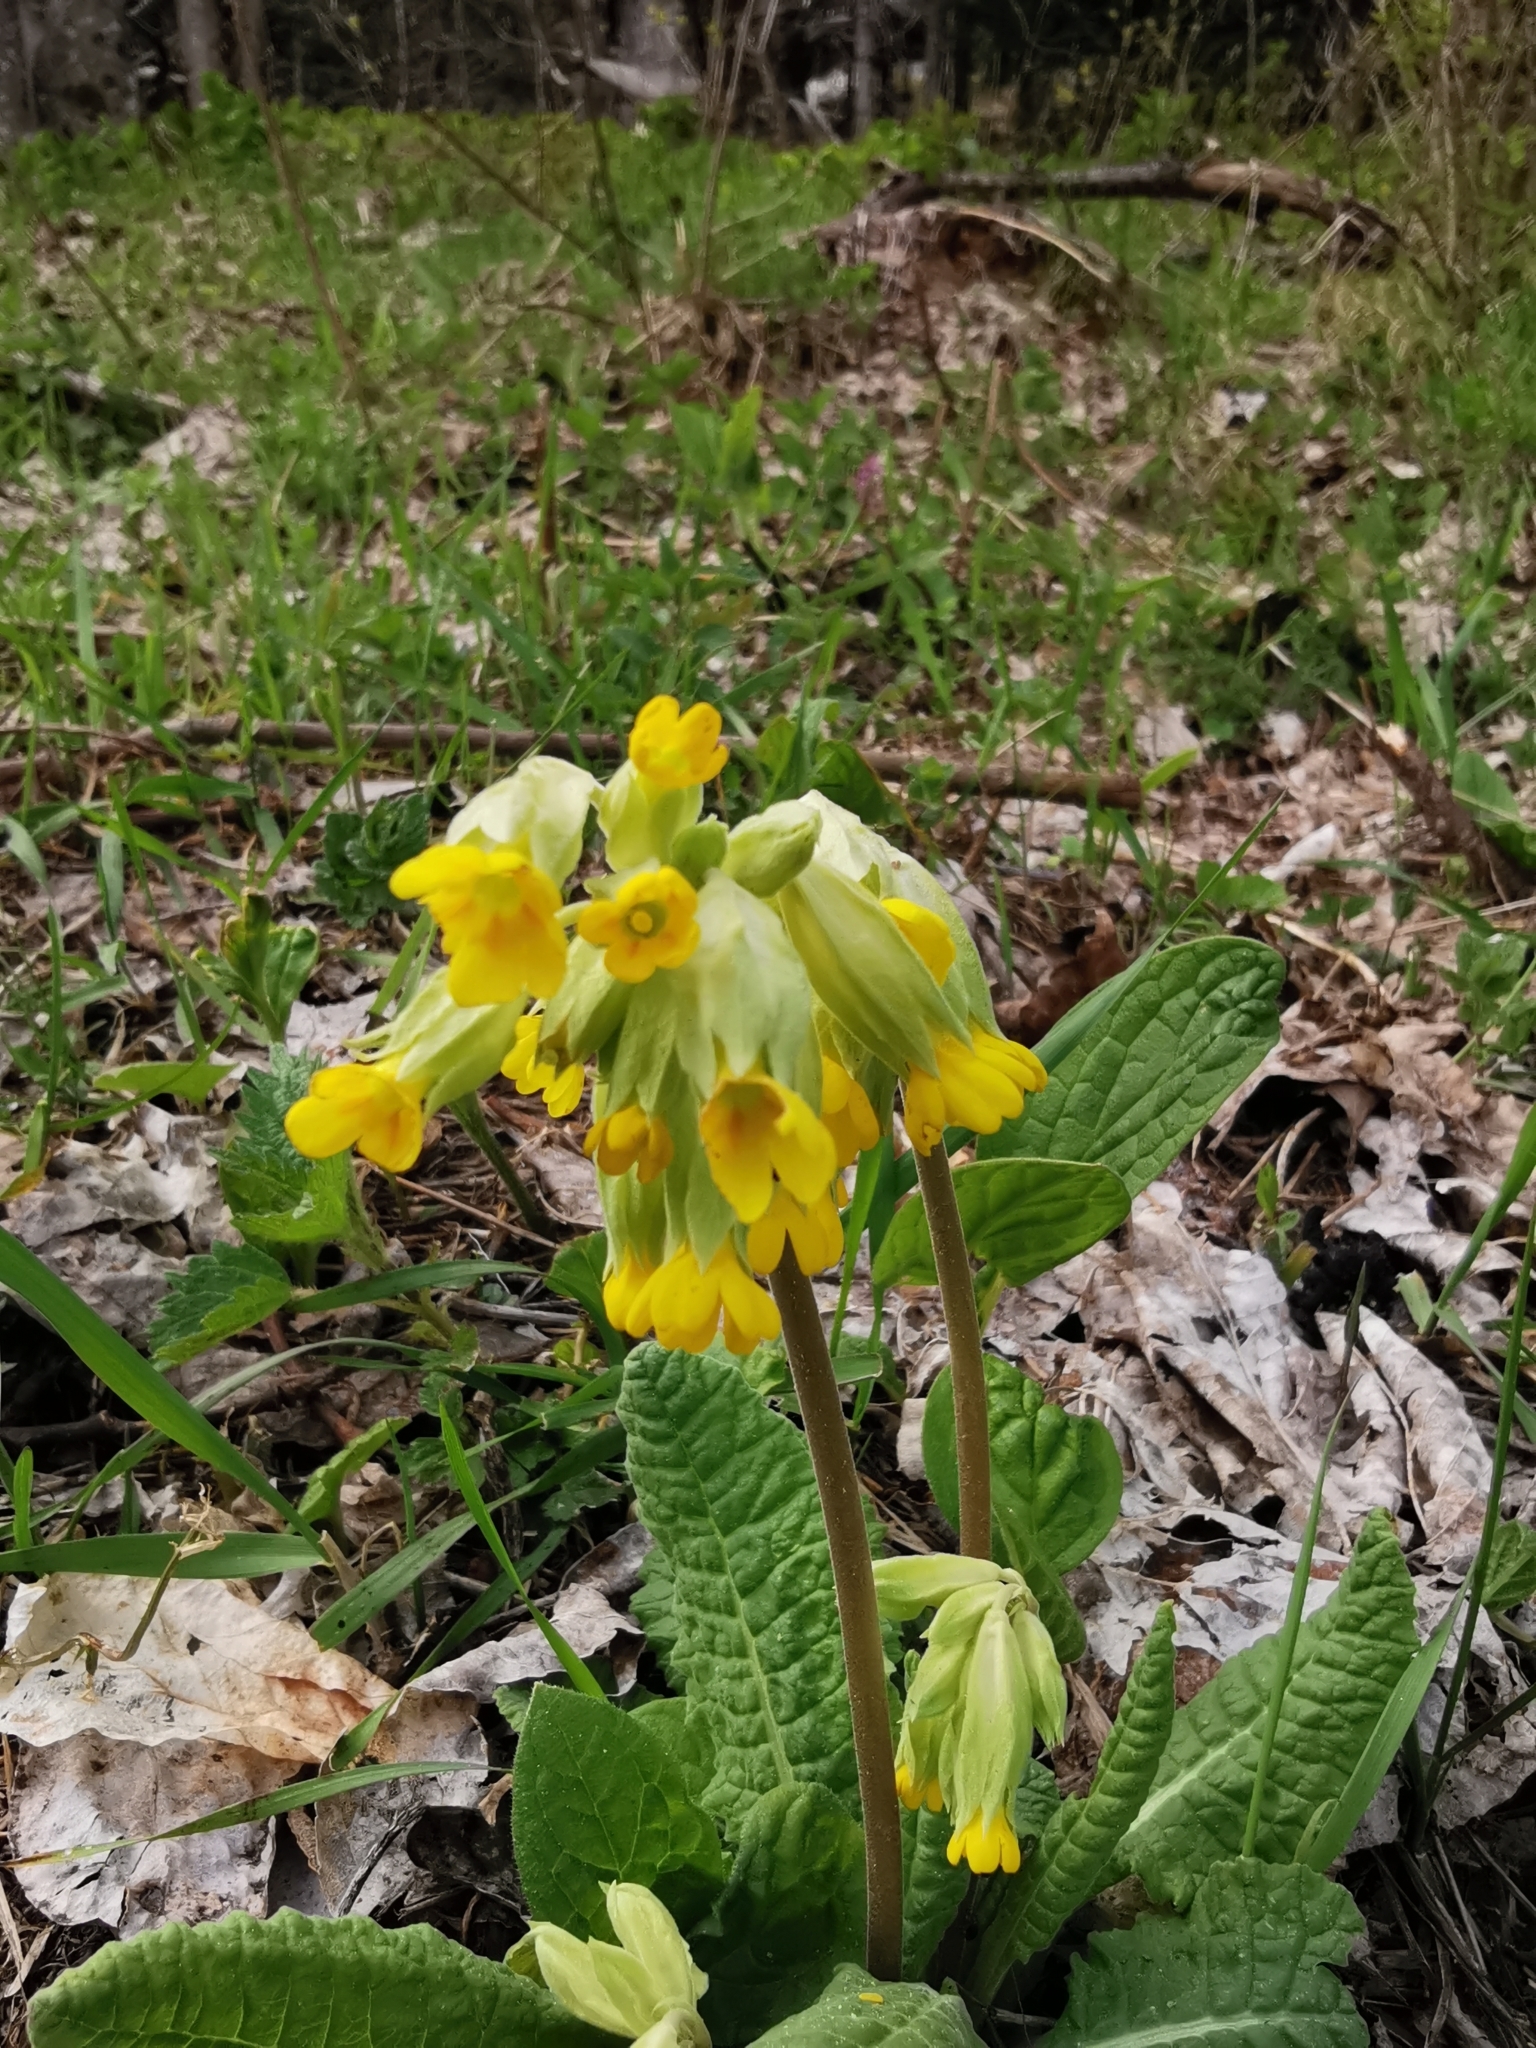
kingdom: Plantae
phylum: Tracheophyta
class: Magnoliopsida
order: Ericales
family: Primulaceae
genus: Primula
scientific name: Primula veris
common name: Cowslip
